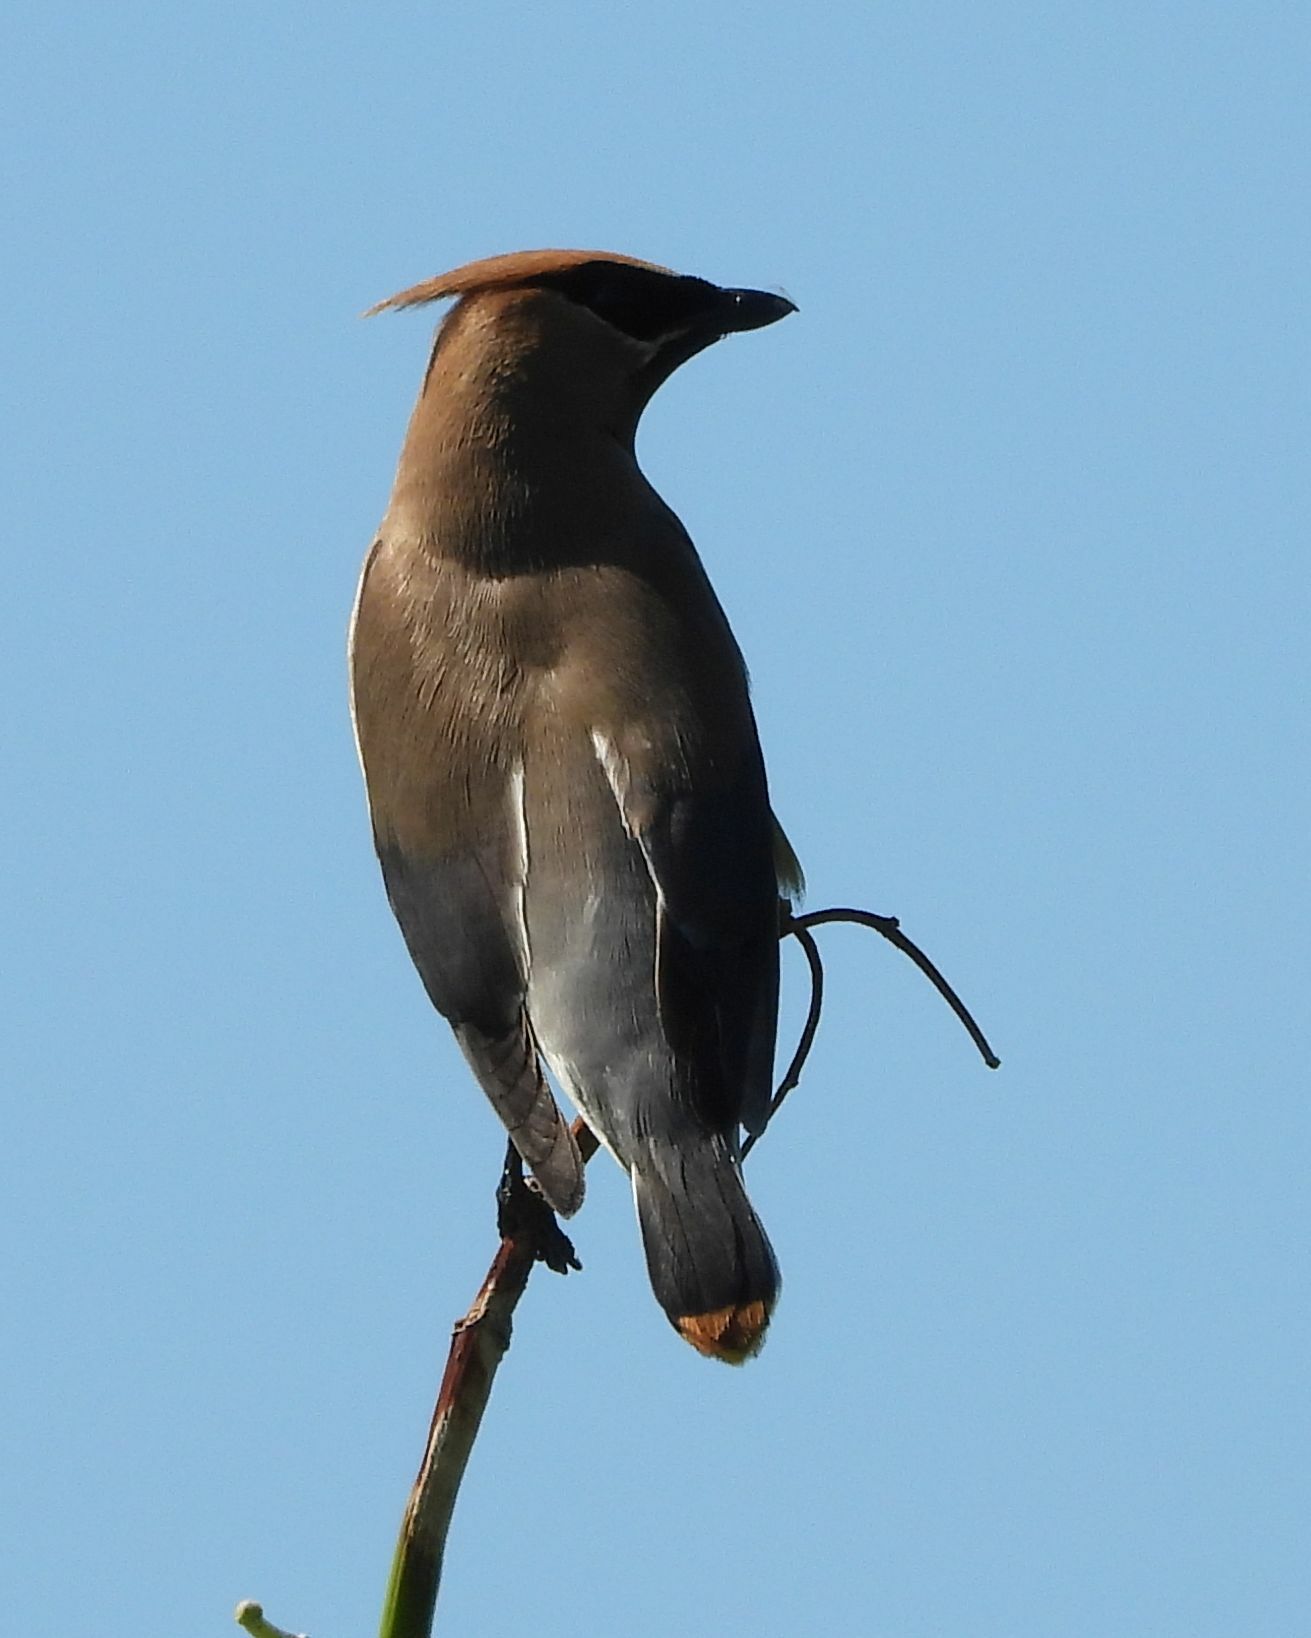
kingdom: Animalia
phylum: Chordata
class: Aves
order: Passeriformes
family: Bombycillidae
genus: Bombycilla
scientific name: Bombycilla cedrorum
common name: Cedar waxwing
